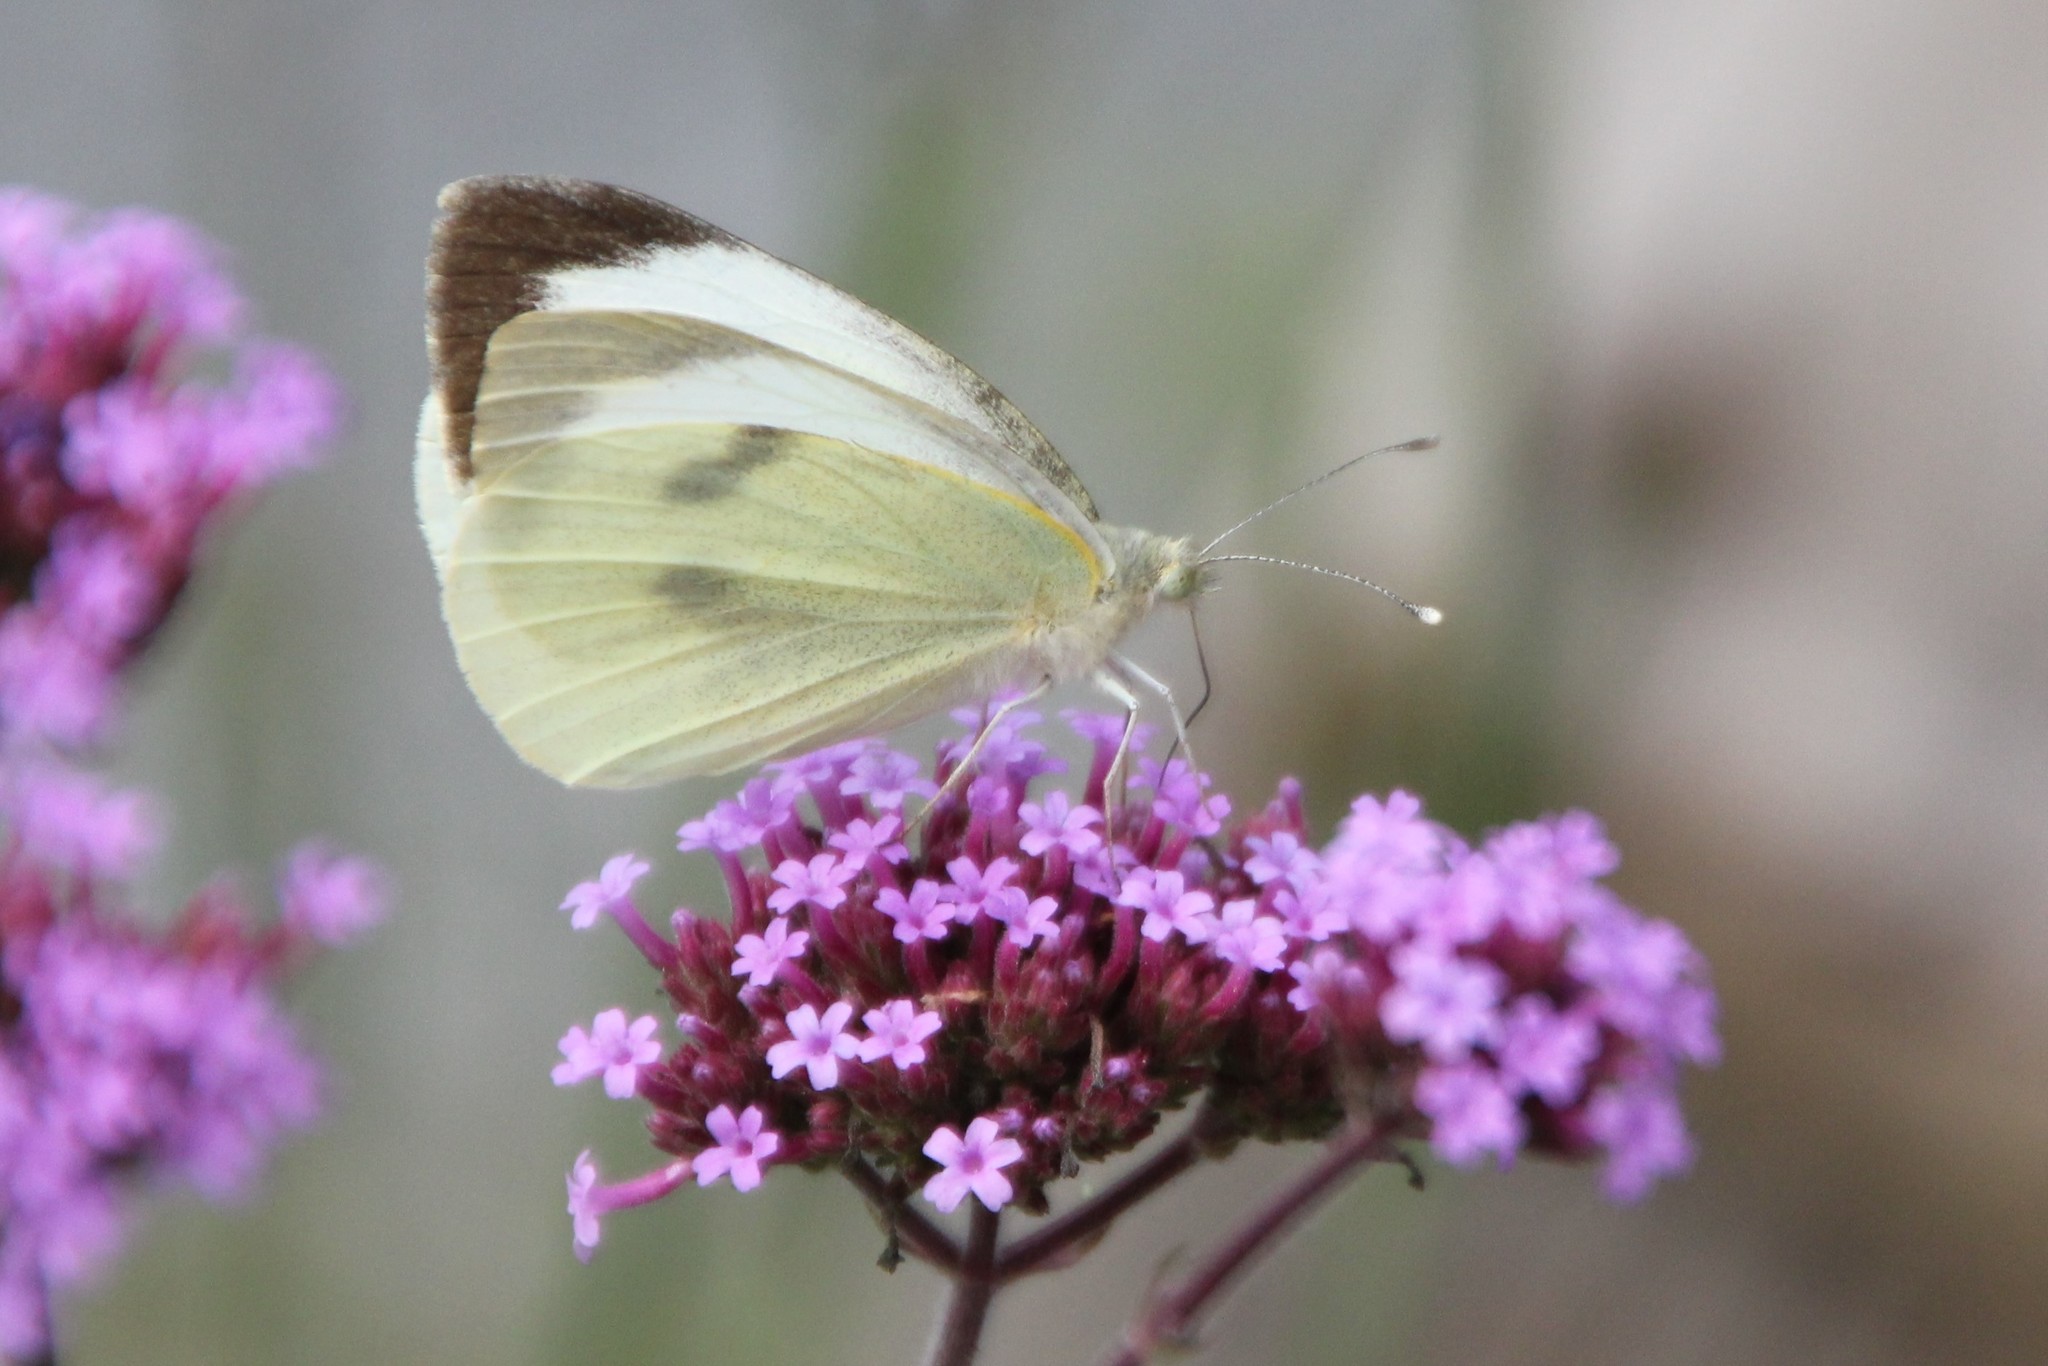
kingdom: Animalia
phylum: Arthropoda
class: Insecta
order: Lepidoptera
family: Pieridae
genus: Pieris
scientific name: Pieris brassicae
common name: Large white
